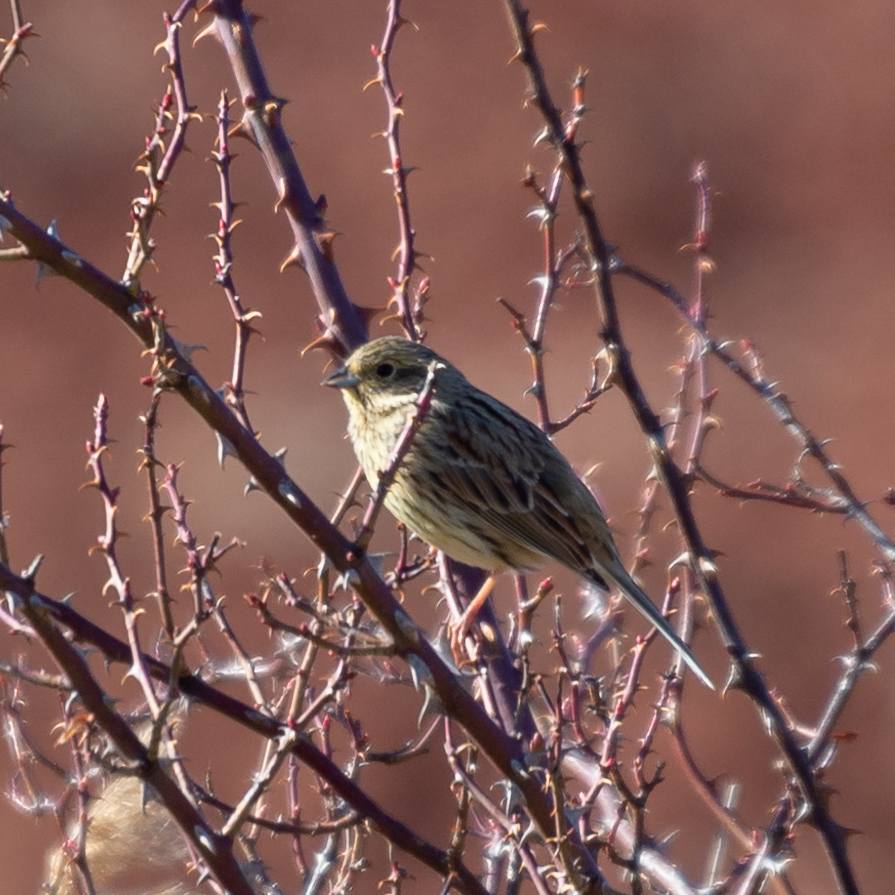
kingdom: Animalia
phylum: Chordata
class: Aves
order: Passeriformes
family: Emberizidae
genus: Emberiza
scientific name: Emberiza cirlus
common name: Cirl bunting
